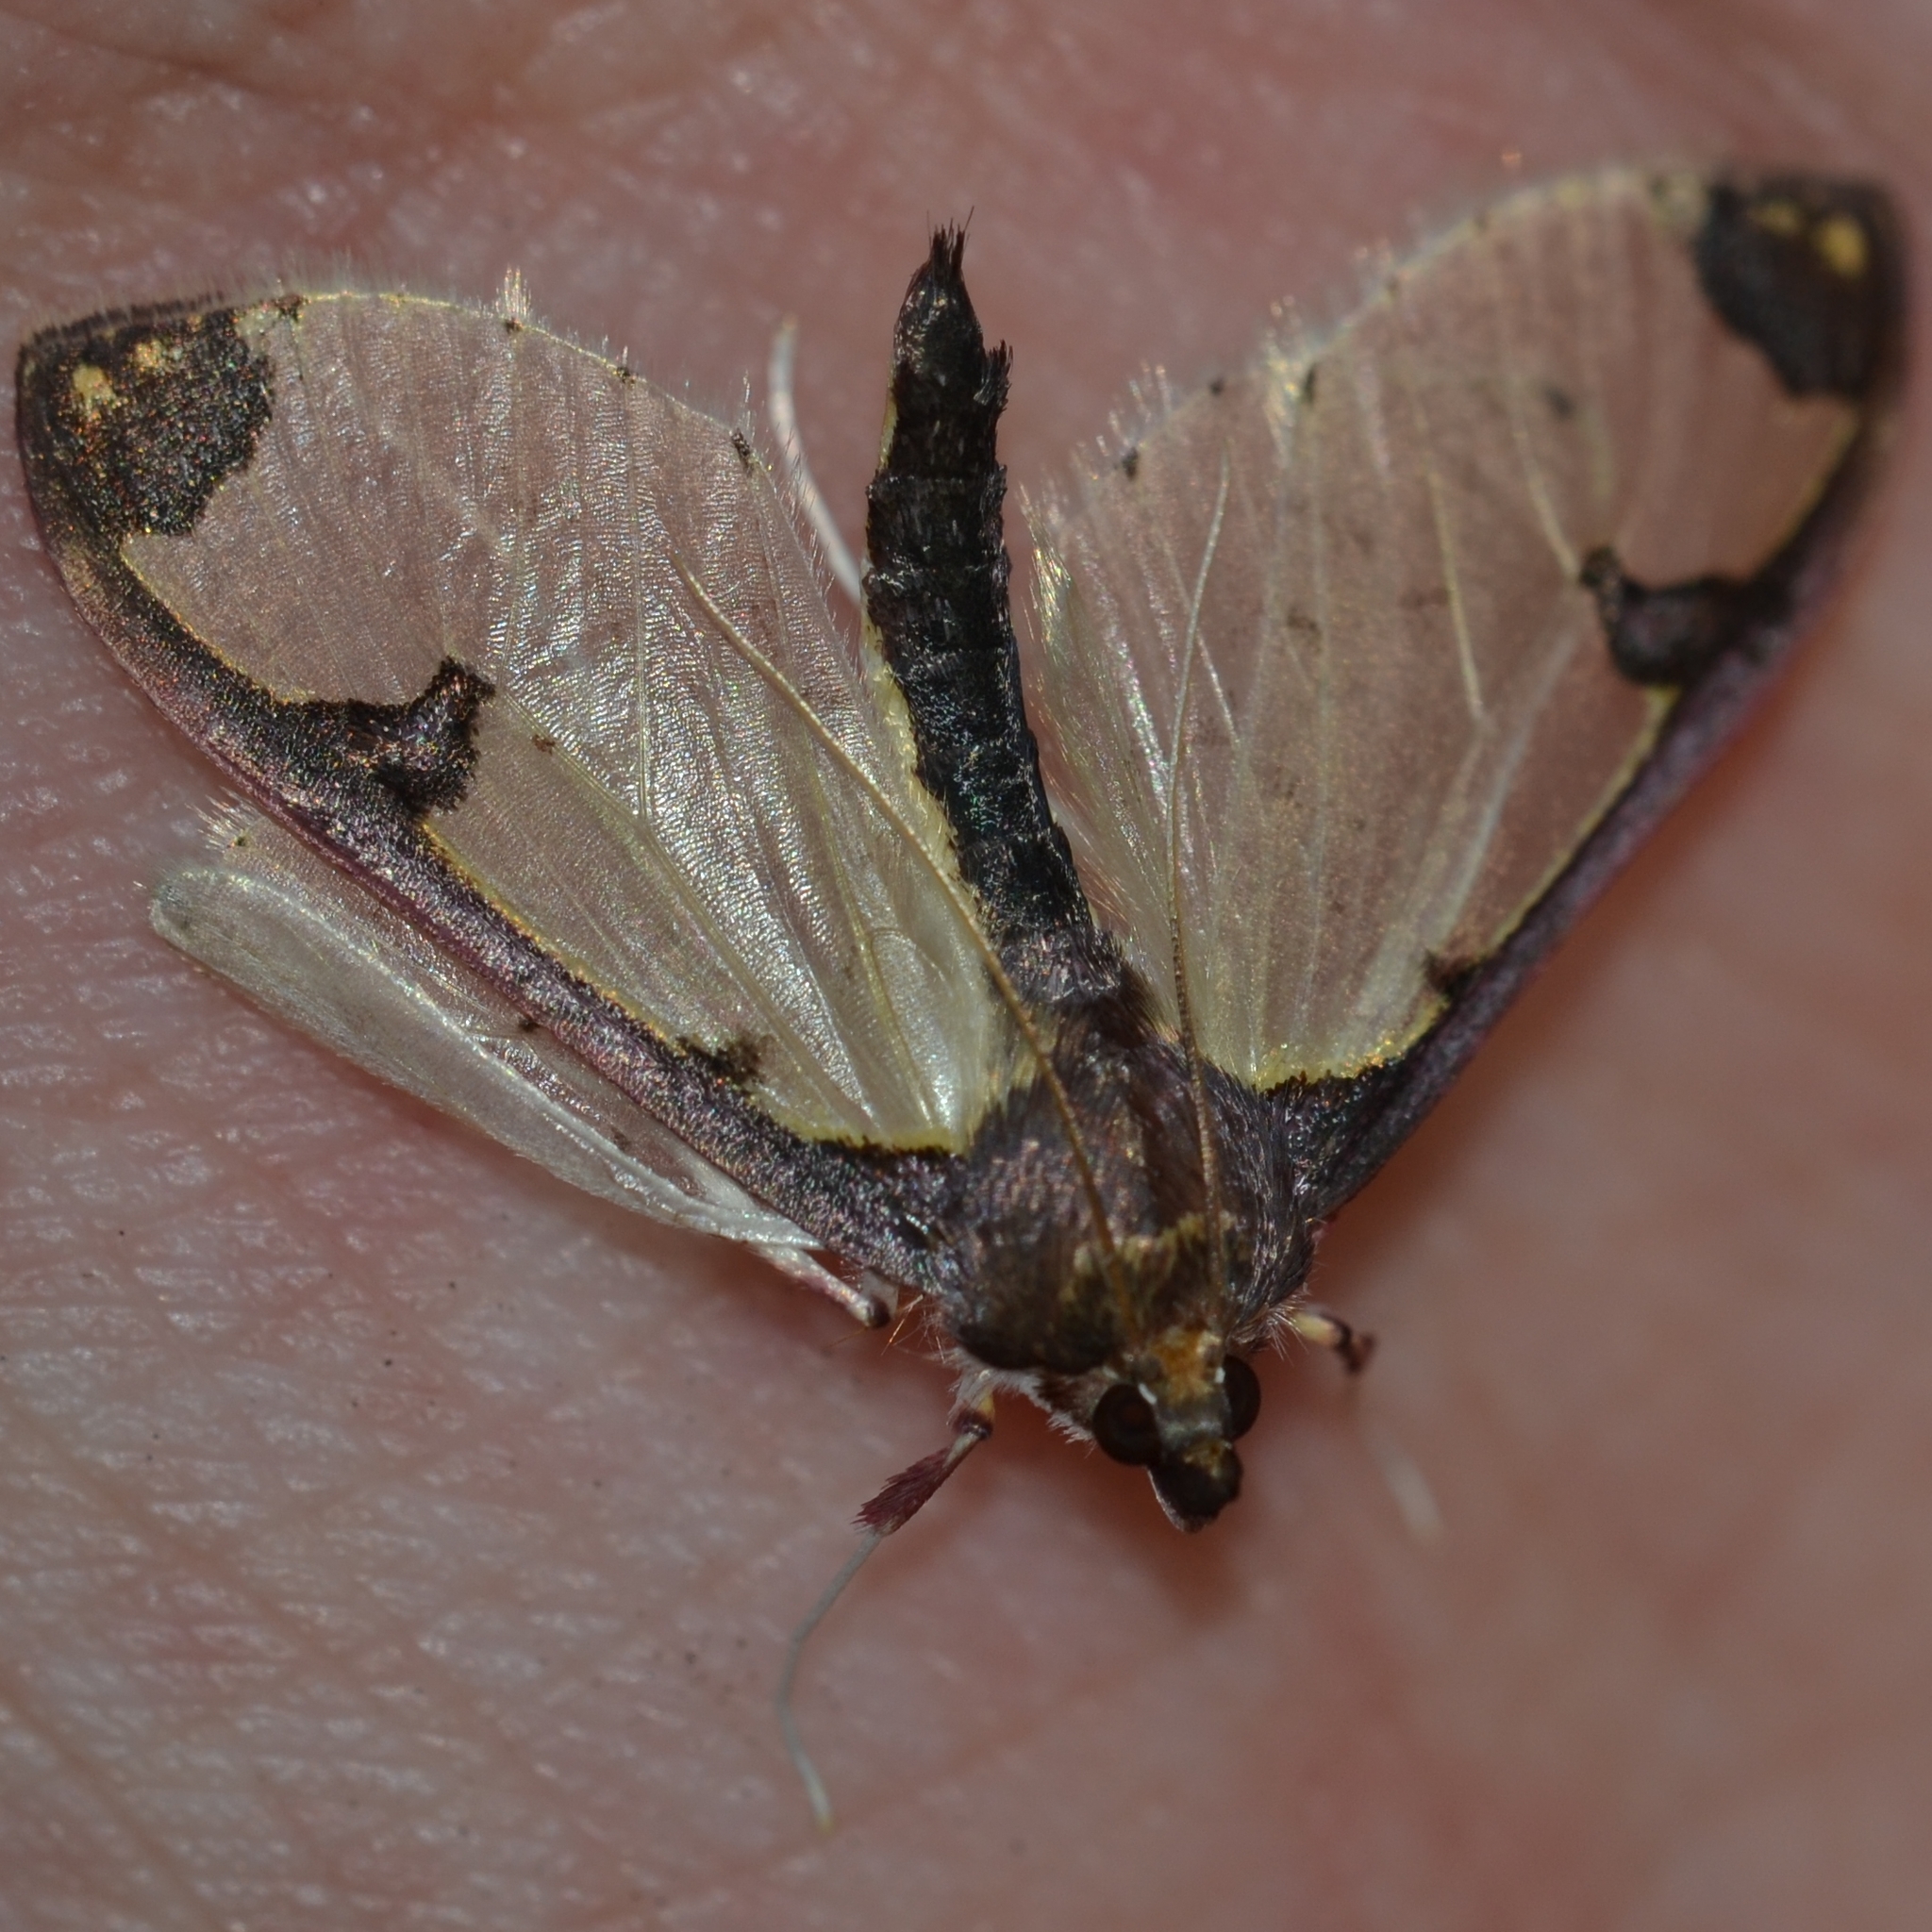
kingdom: Animalia
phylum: Arthropoda
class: Insecta
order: Lepidoptera
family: Crambidae
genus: Glyphodes
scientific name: Glyphodes
